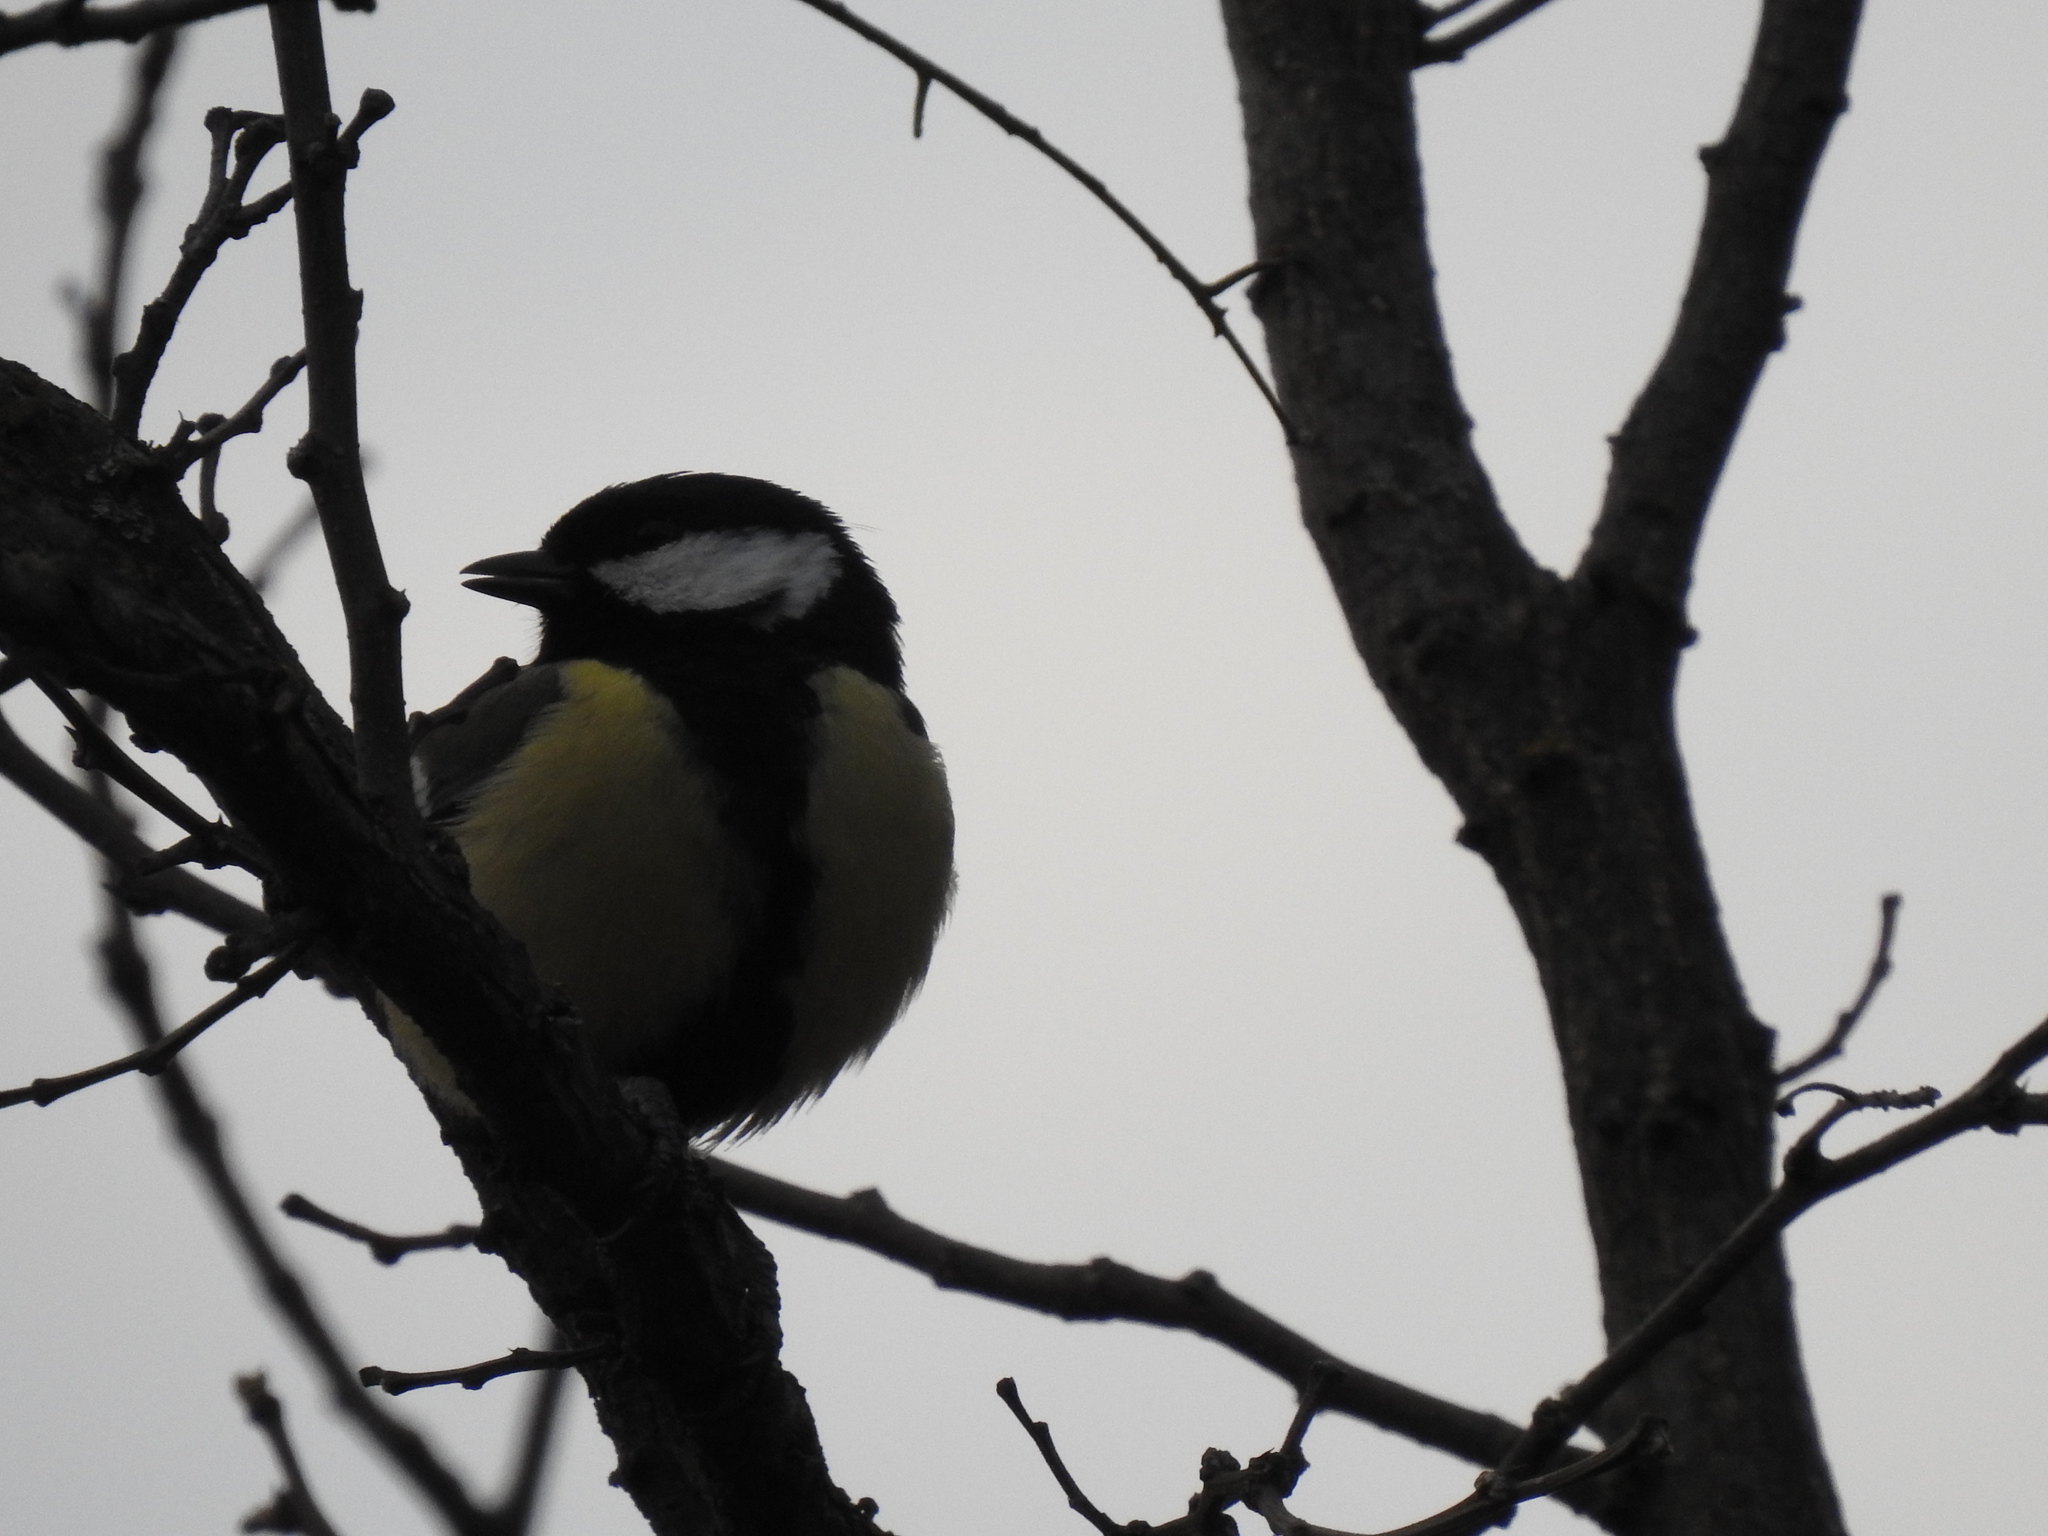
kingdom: Animalia
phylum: Chordata
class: Aves
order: Passeriformes
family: Paridae
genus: Parus
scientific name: Parus major
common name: Great tit
